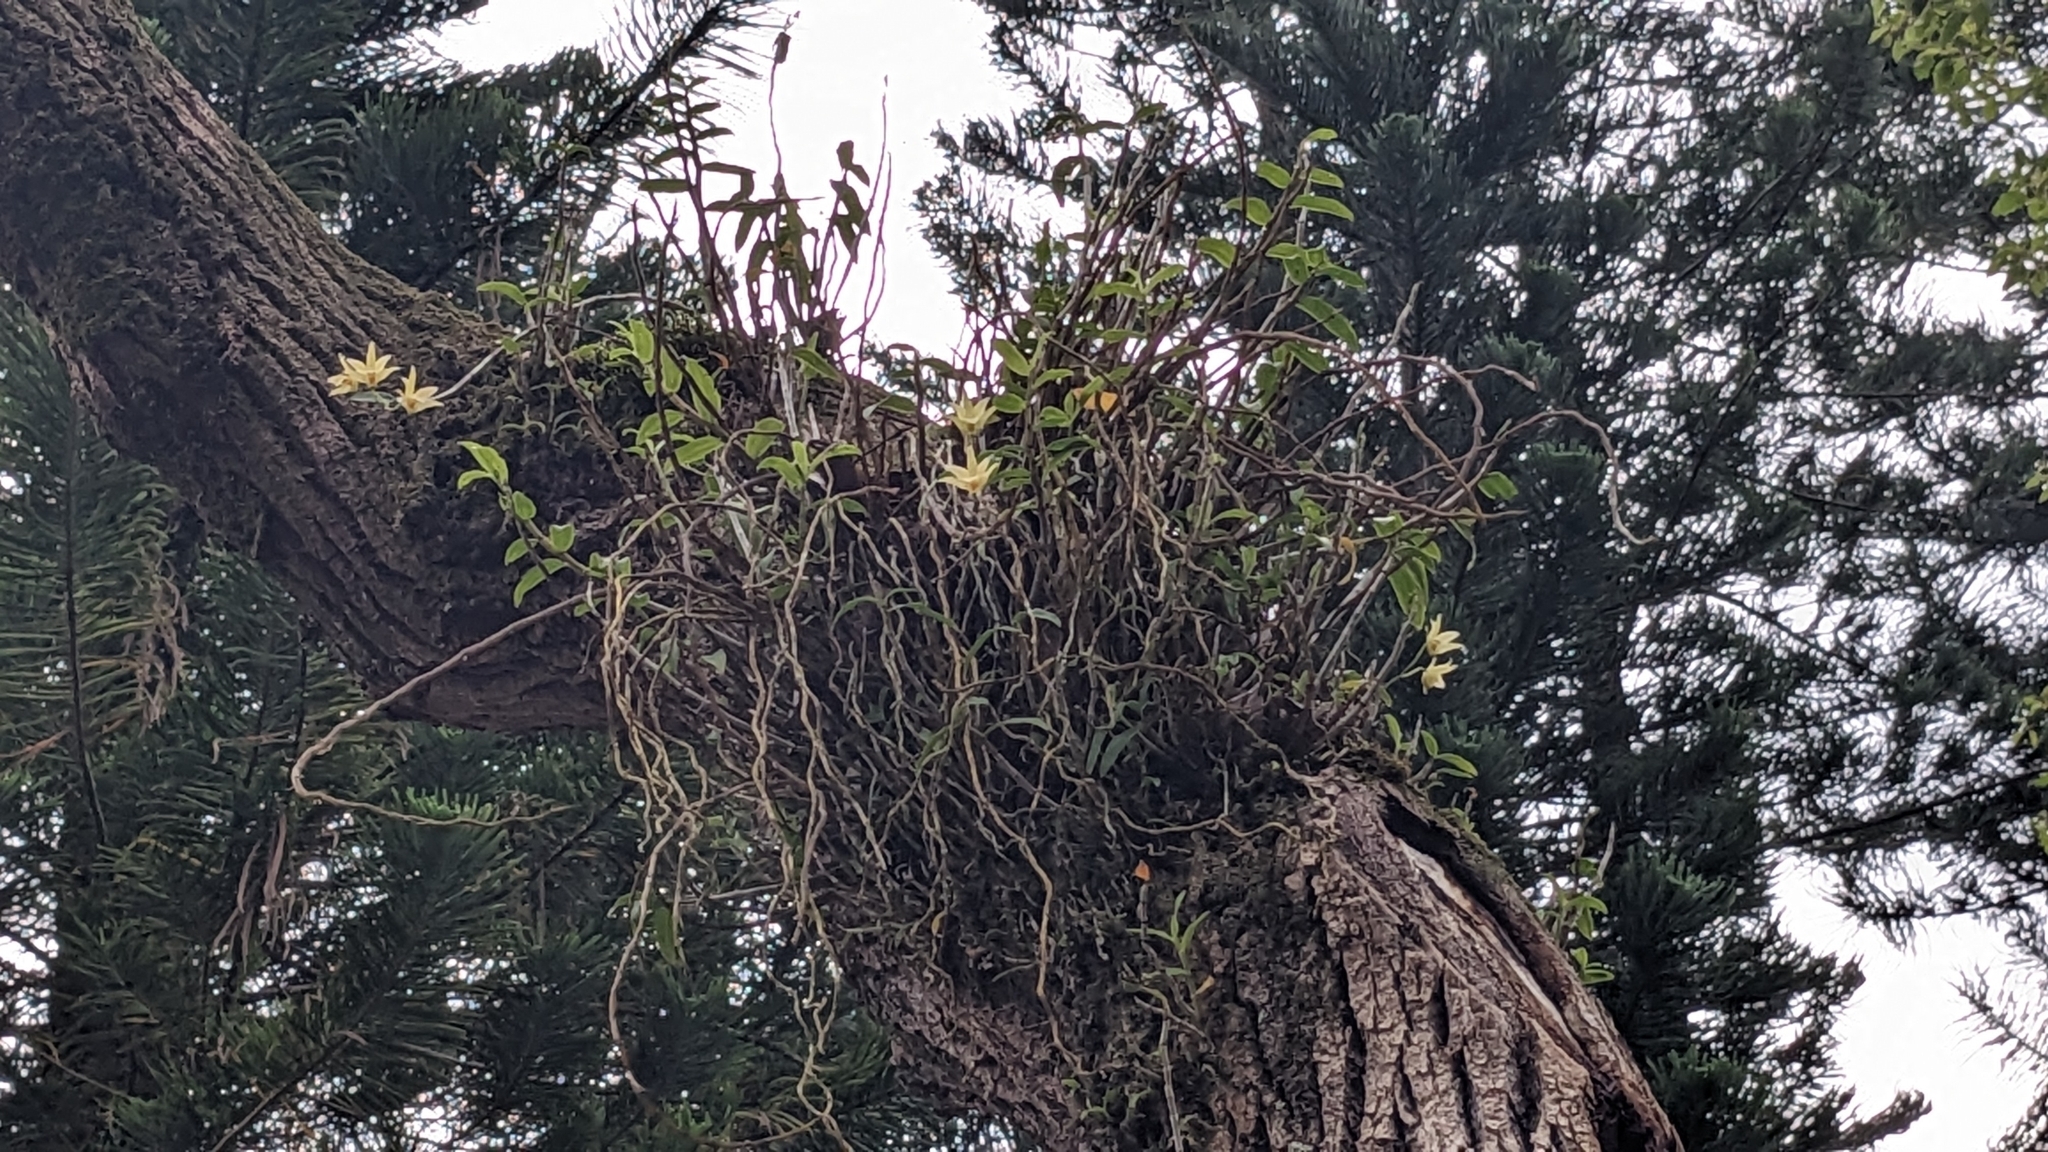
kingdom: Plantae
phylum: Tracheophyta
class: Liliopsida
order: Asparagales
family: Orchidaceae
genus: Dendrobium
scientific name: Dendrobium officinale
